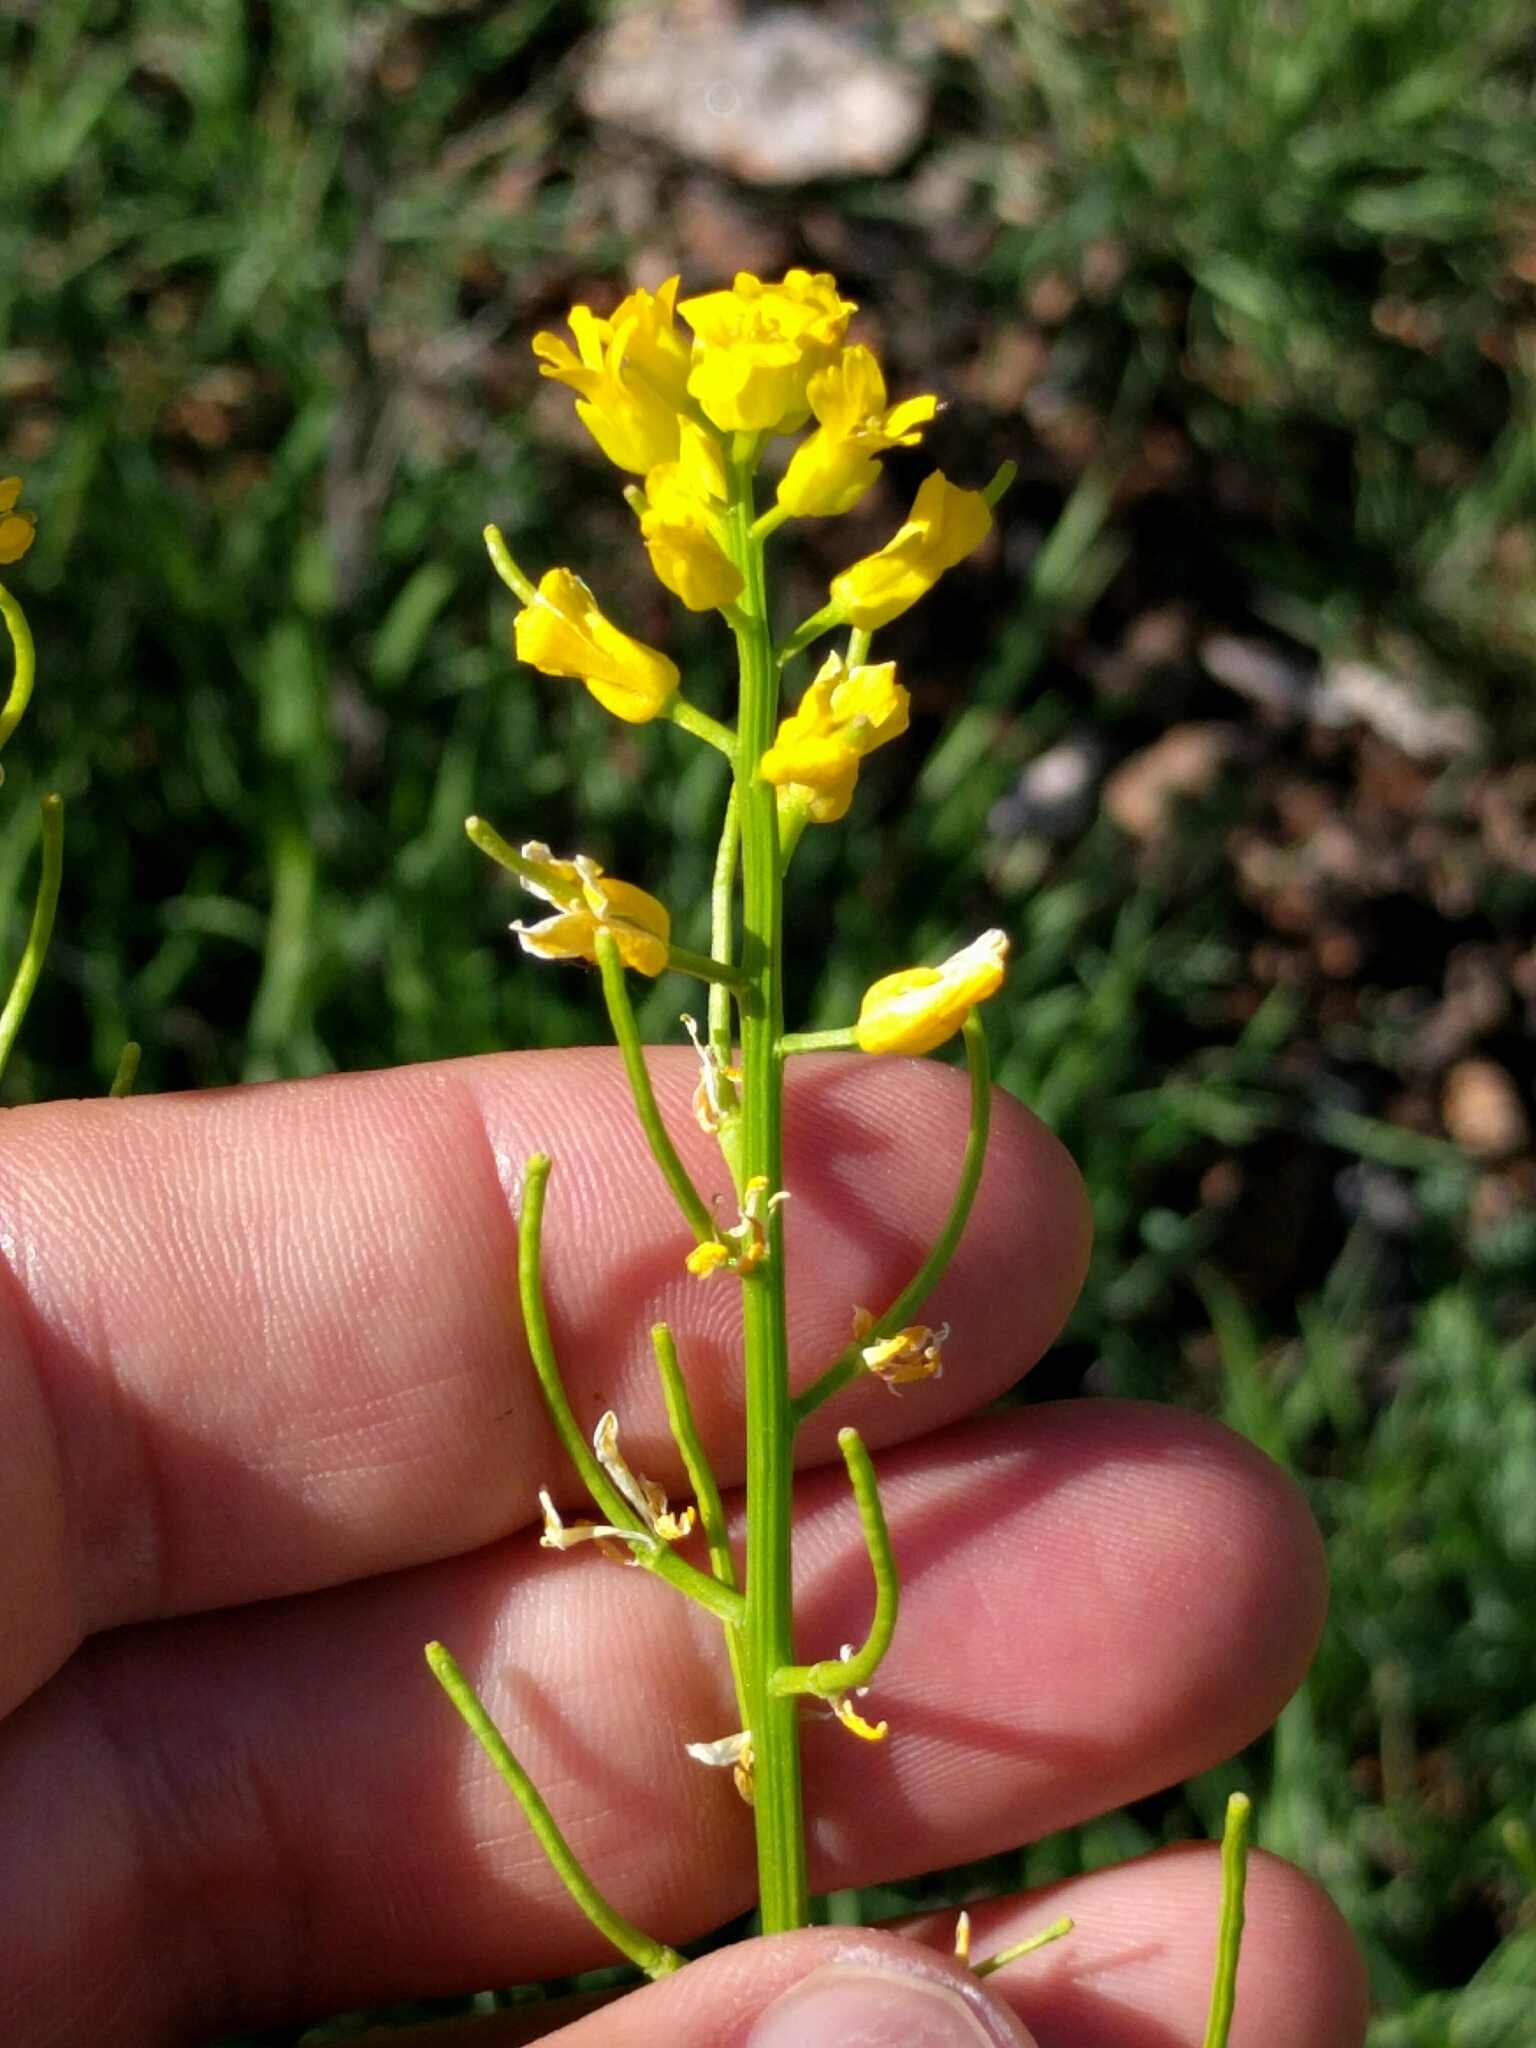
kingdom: Plantae
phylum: Tracheophyta
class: Magnoliopsida
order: Brassicales
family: Brassicaceae
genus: Barbarea
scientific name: Barbarea orthoceras
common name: American wintercress
